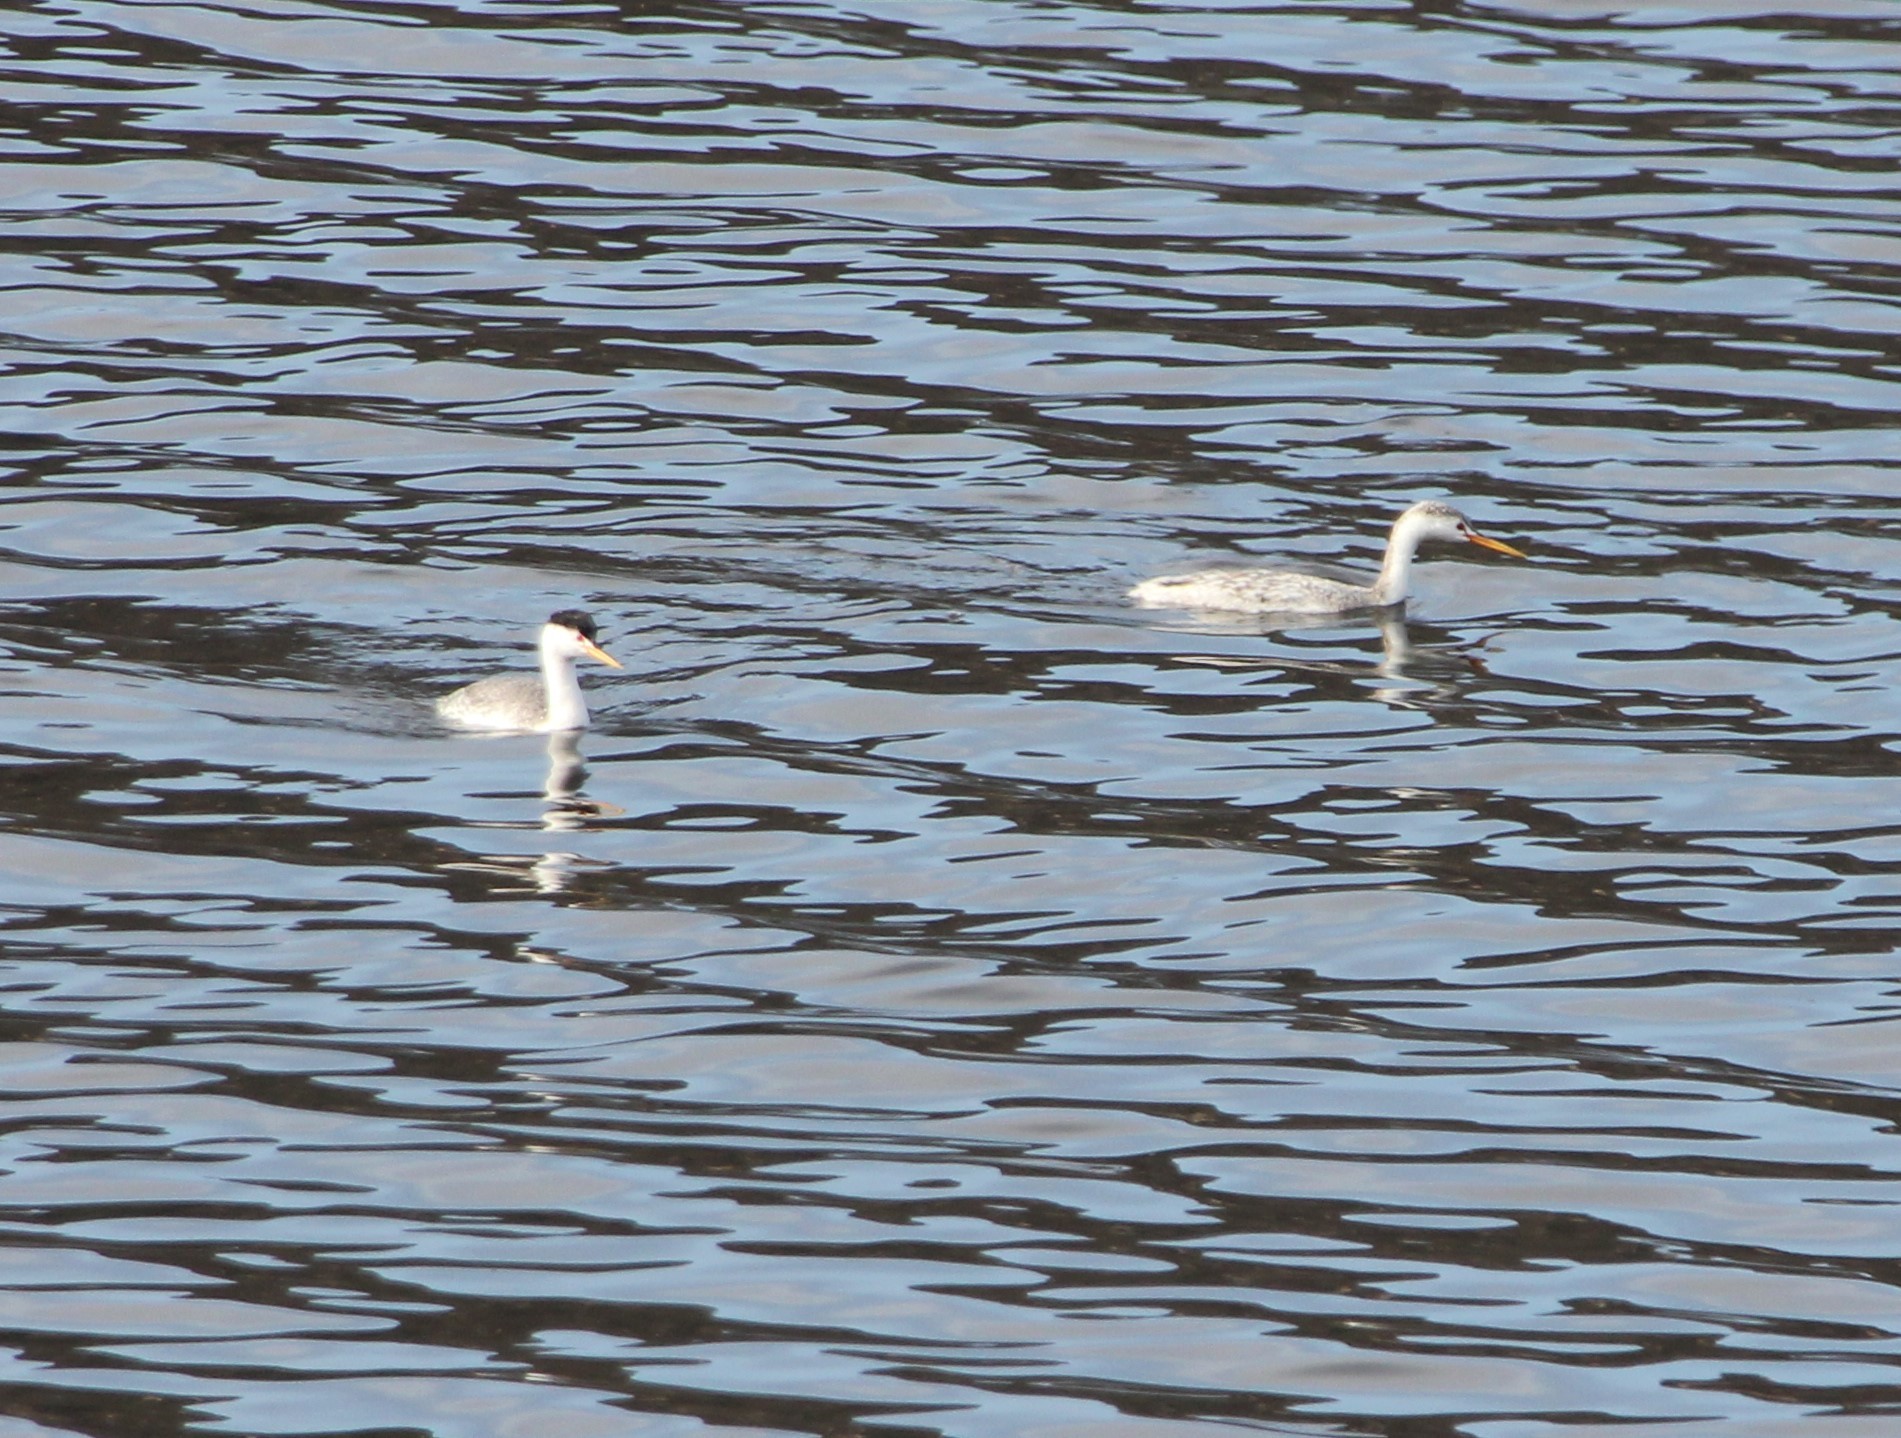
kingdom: Animalia
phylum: Chordata
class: Aves
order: Podicipediformes
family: Podicipedidae
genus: Aechmophorus
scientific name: Aechmophorus clarkii
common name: Clark's grebe
